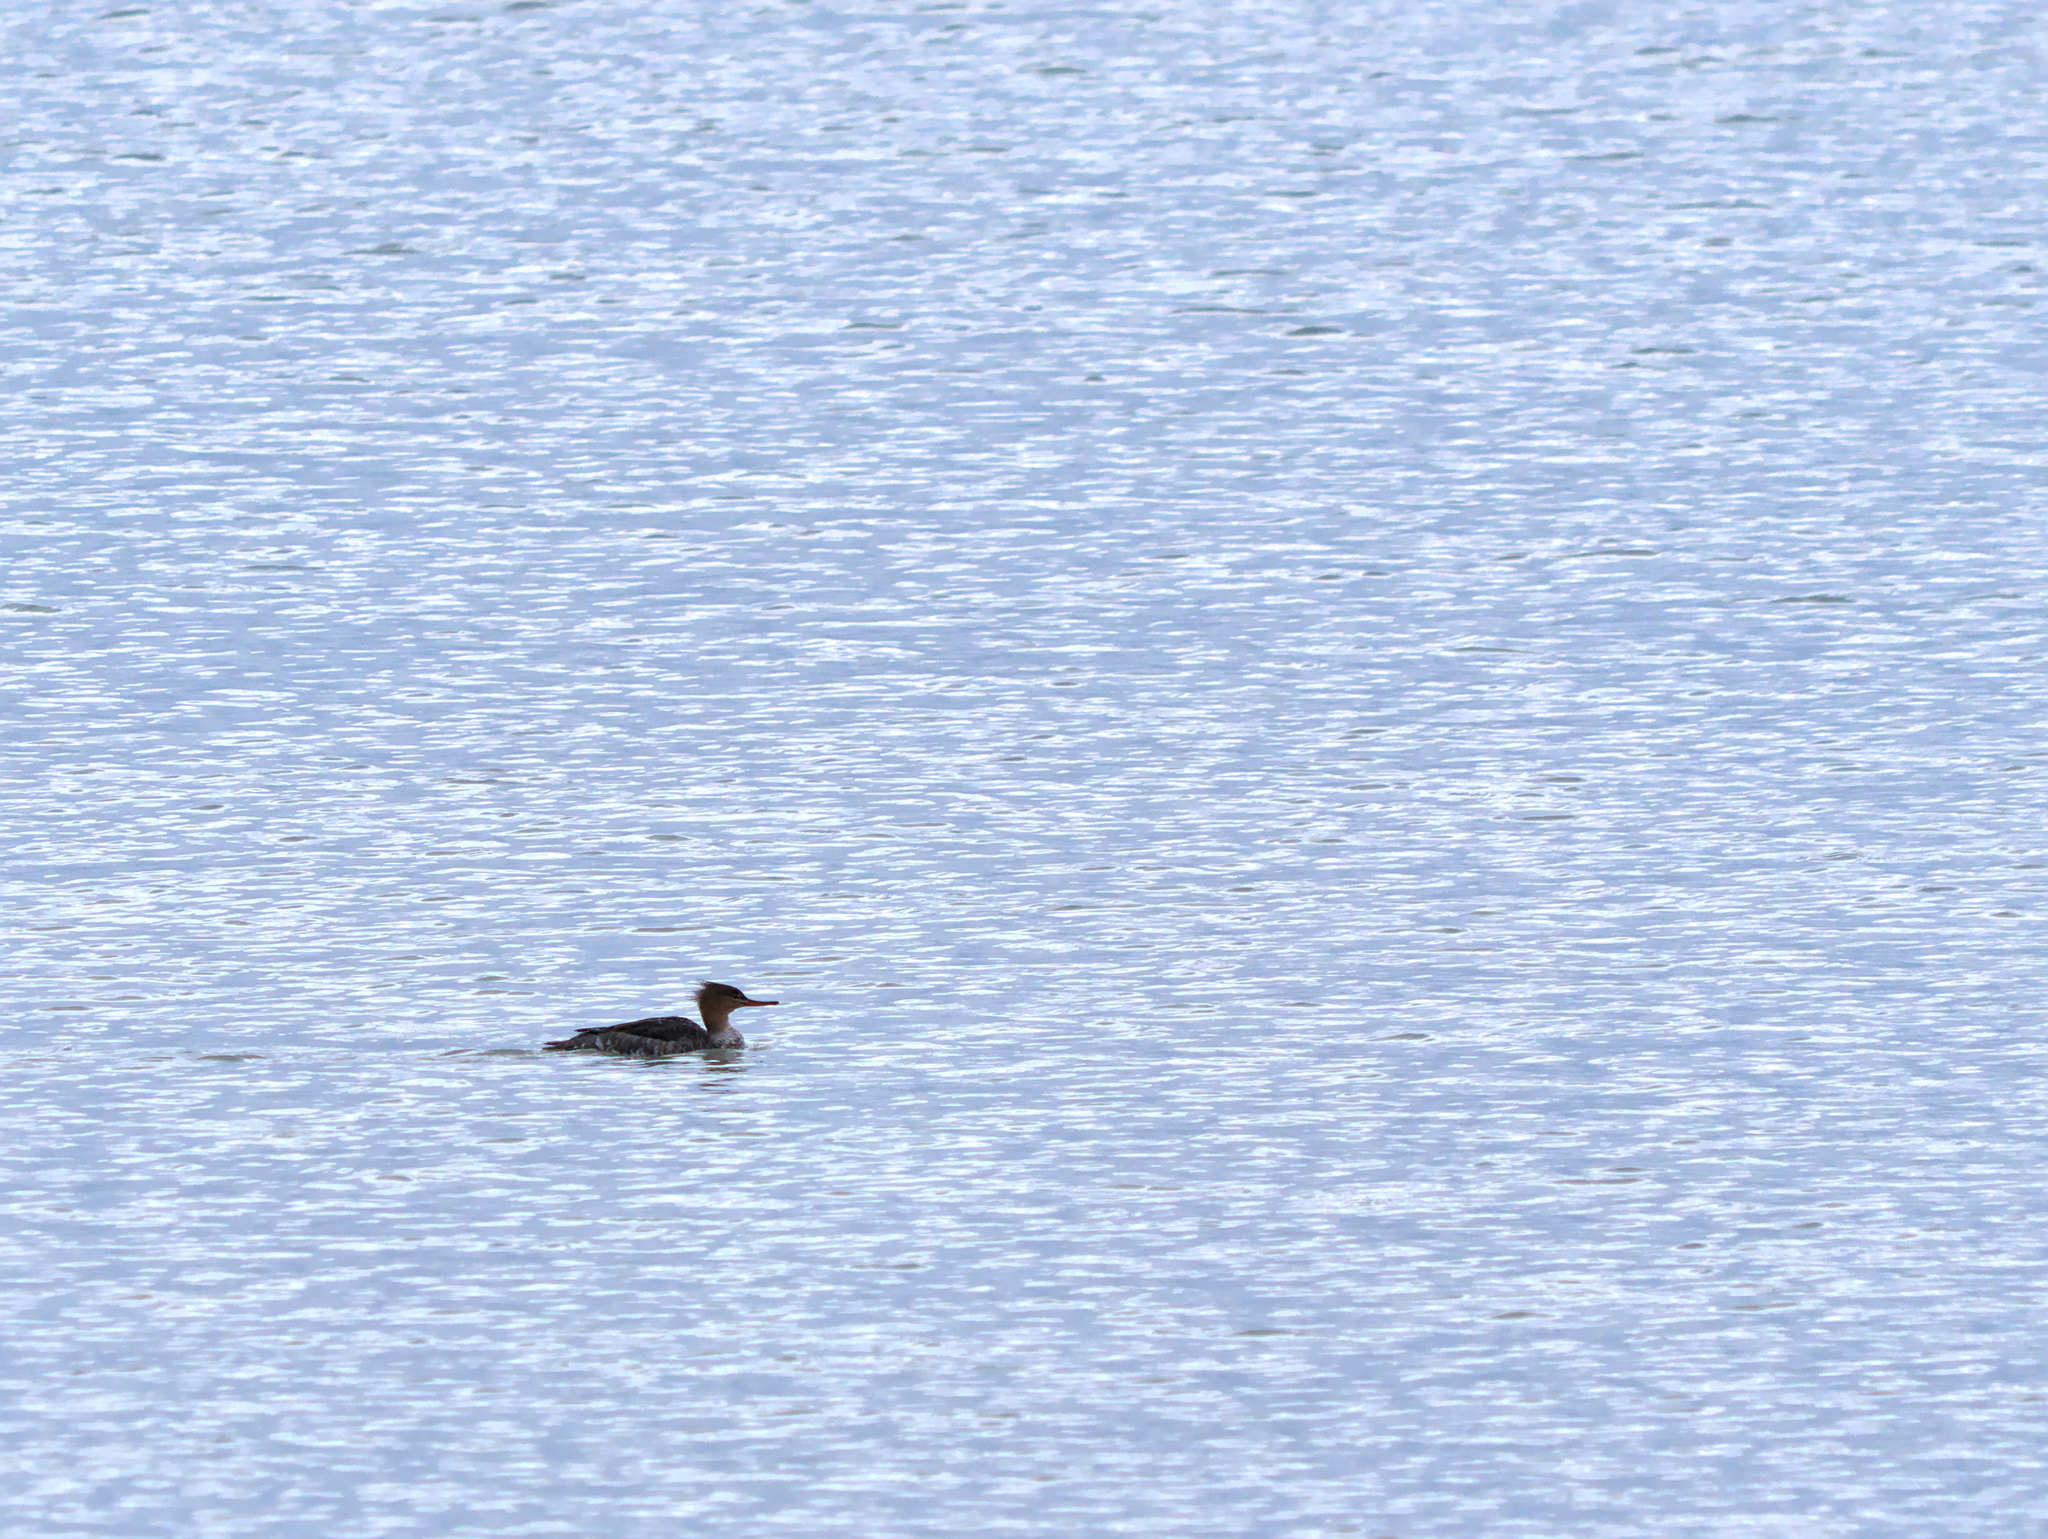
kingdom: Animalia
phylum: Chordata
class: Aves
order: Anseriformes
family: Anatidae
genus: Mergus
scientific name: Mergus serrator
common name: Red-breasted merganser
